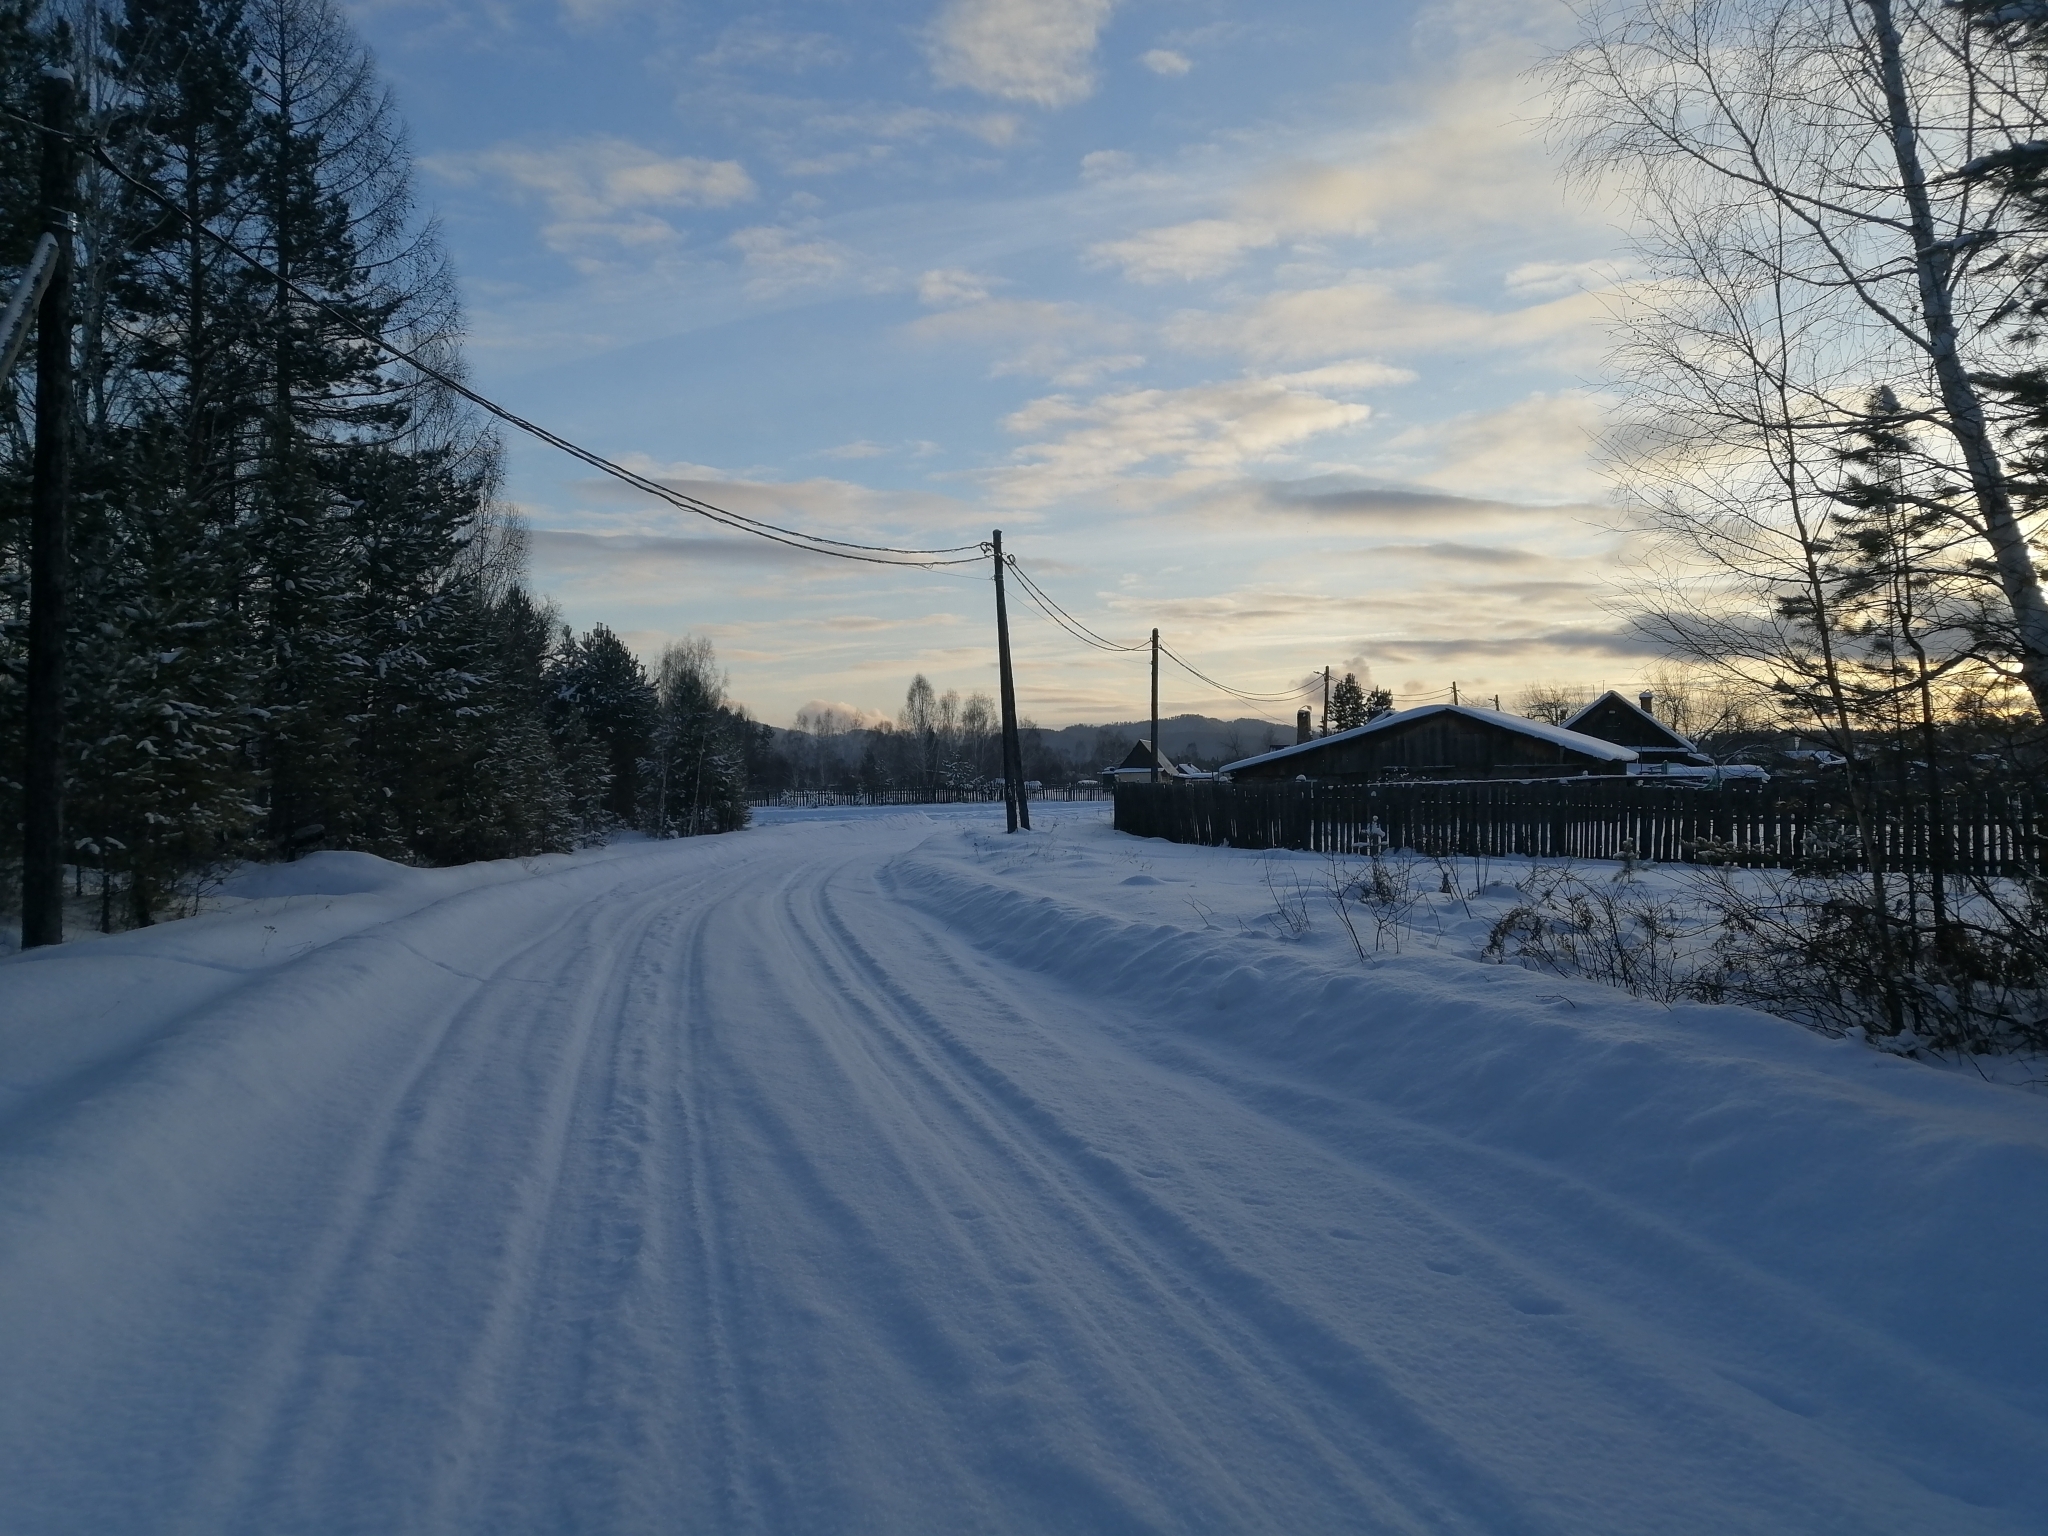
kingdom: Plantae
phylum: Tracheophyta
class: Pinopsida
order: Pinales
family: Pinaceae
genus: Larix
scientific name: Larix sibirica
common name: Siberian larch
